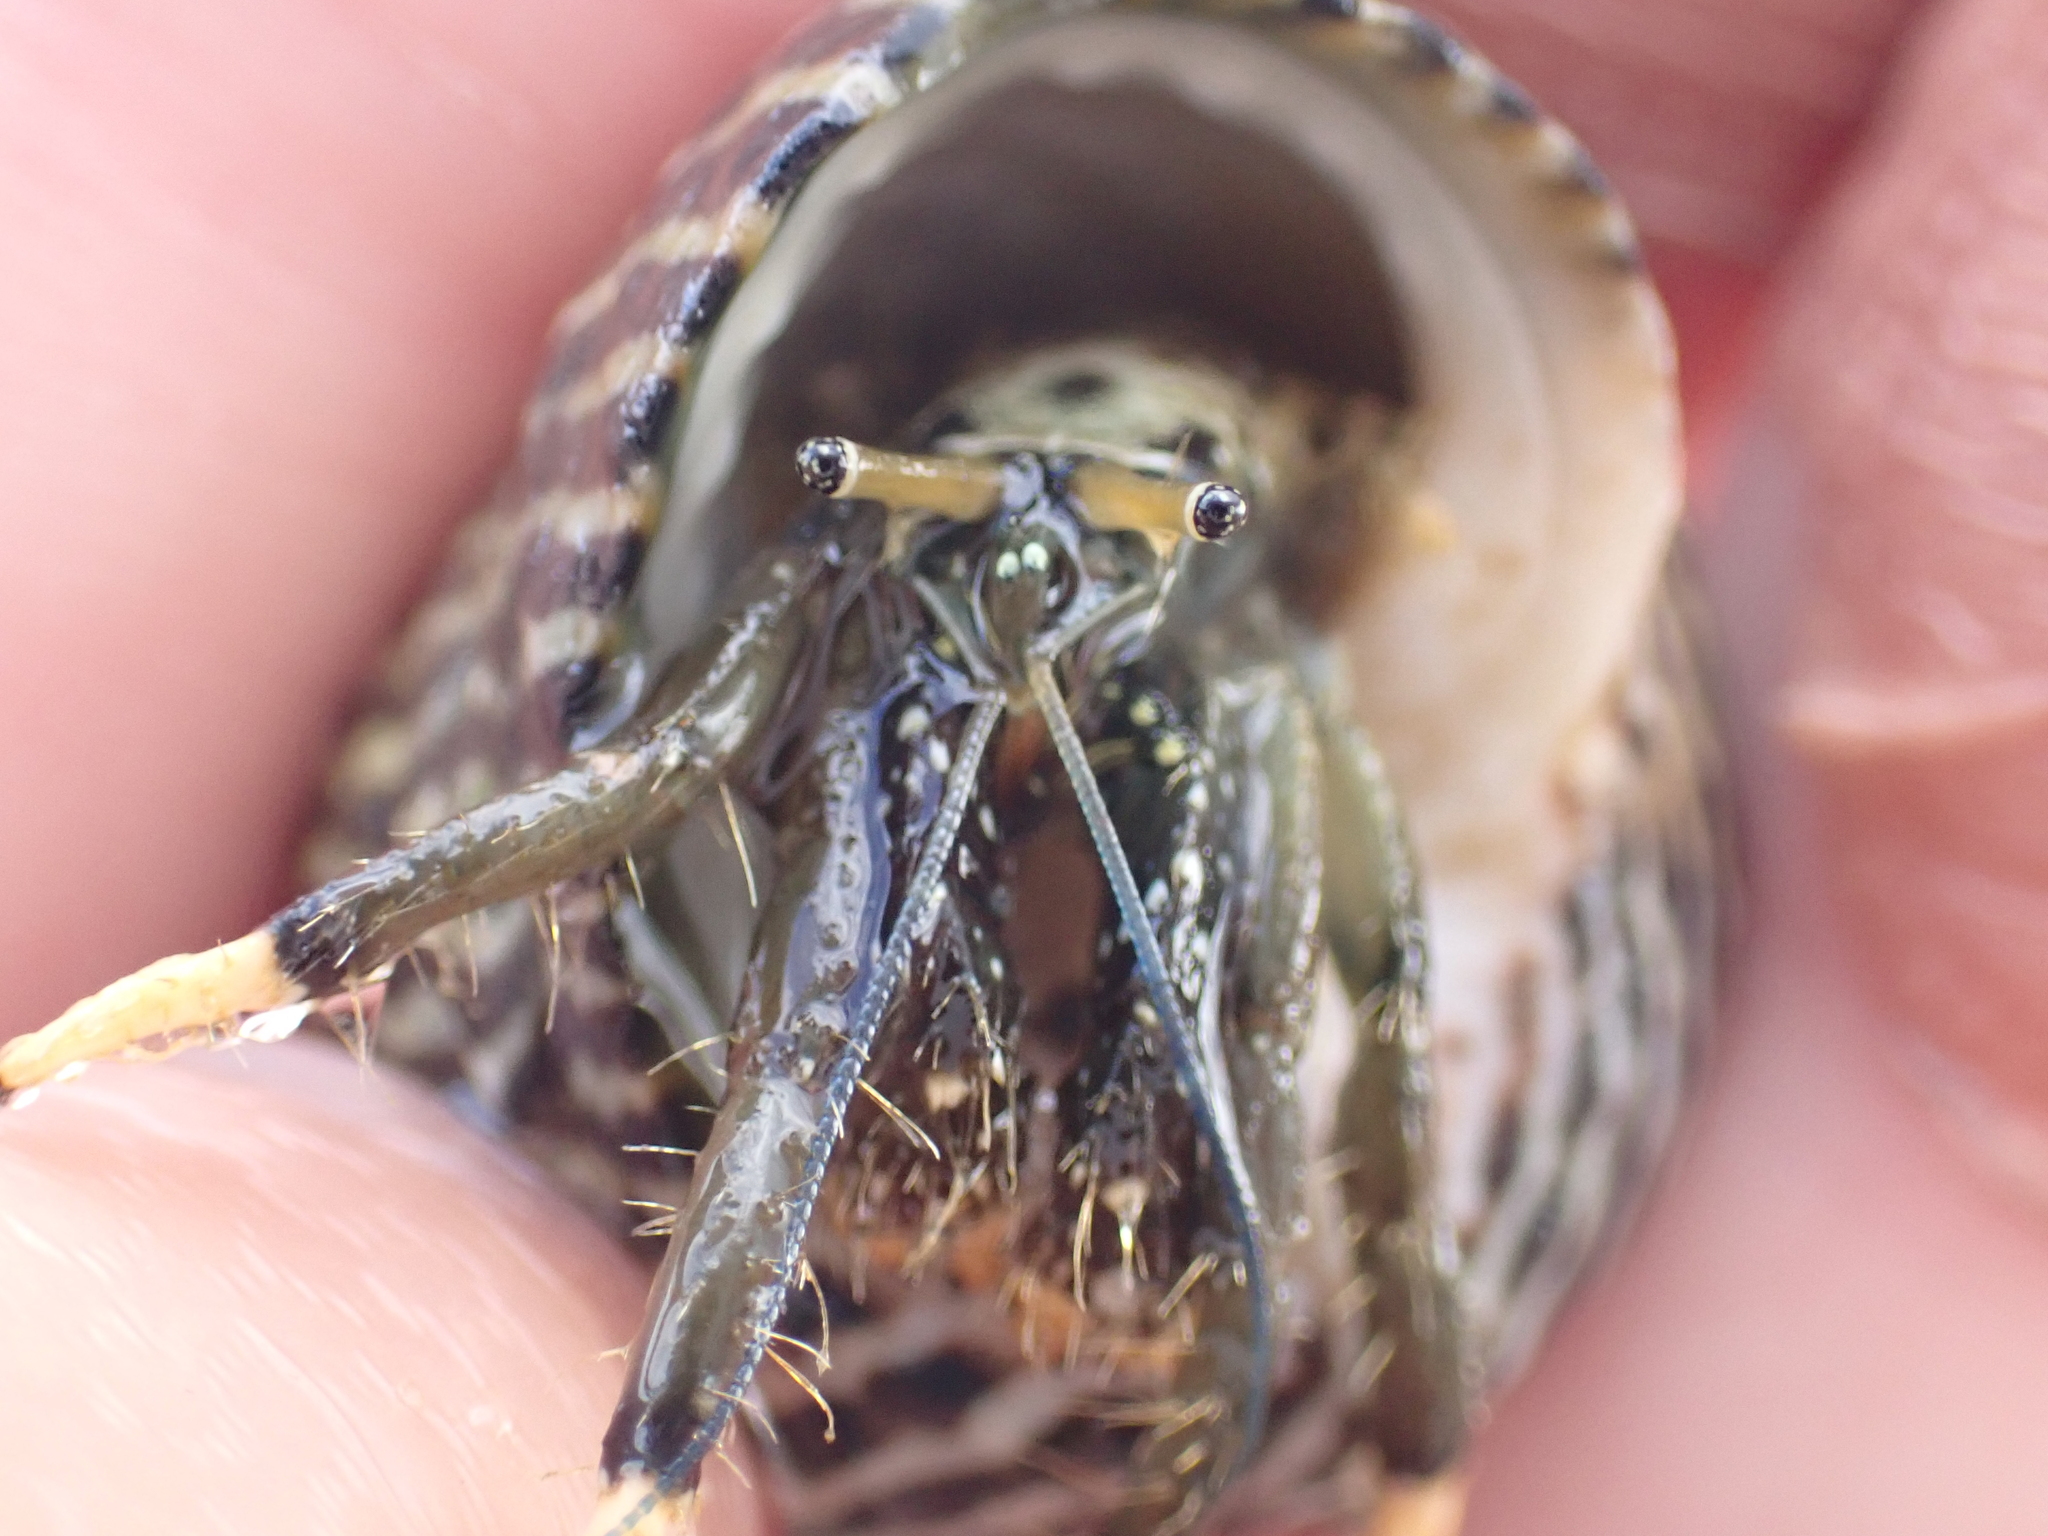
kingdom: Animalia
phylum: Arthropoda
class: Malacostraca
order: Decapoda
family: Diogenidae
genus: Clibanarius
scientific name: Clibanarius virescens
